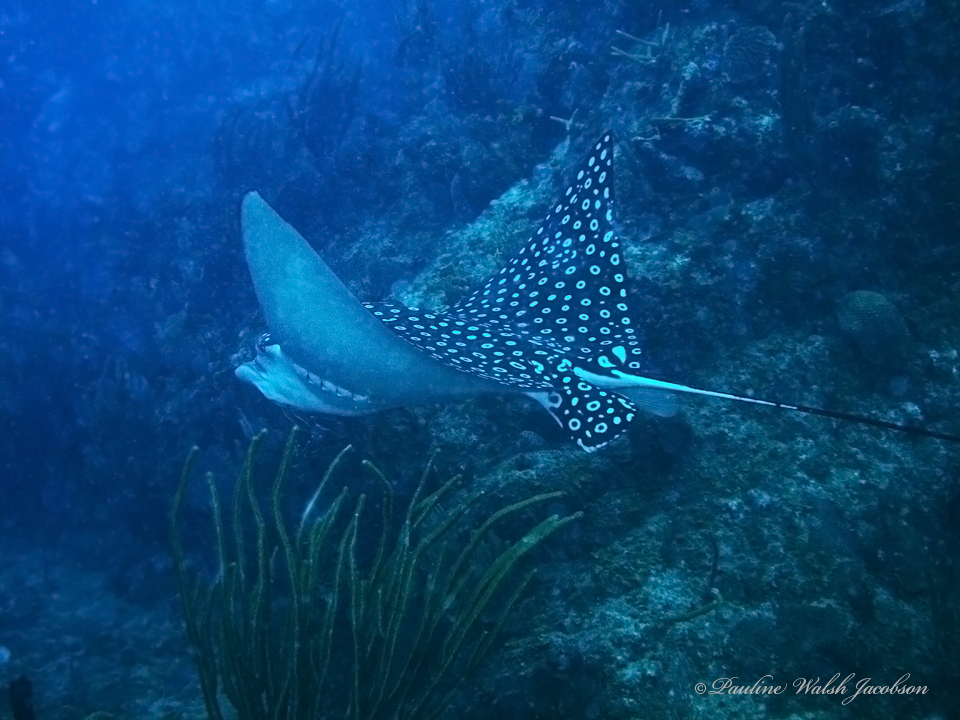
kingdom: Animalia
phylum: Chordata
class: Elasmobranchii
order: Myliobatiformes
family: Myliobatidae
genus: Aetobatus
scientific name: Aetobatus narinari
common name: Spotted eagle ray
